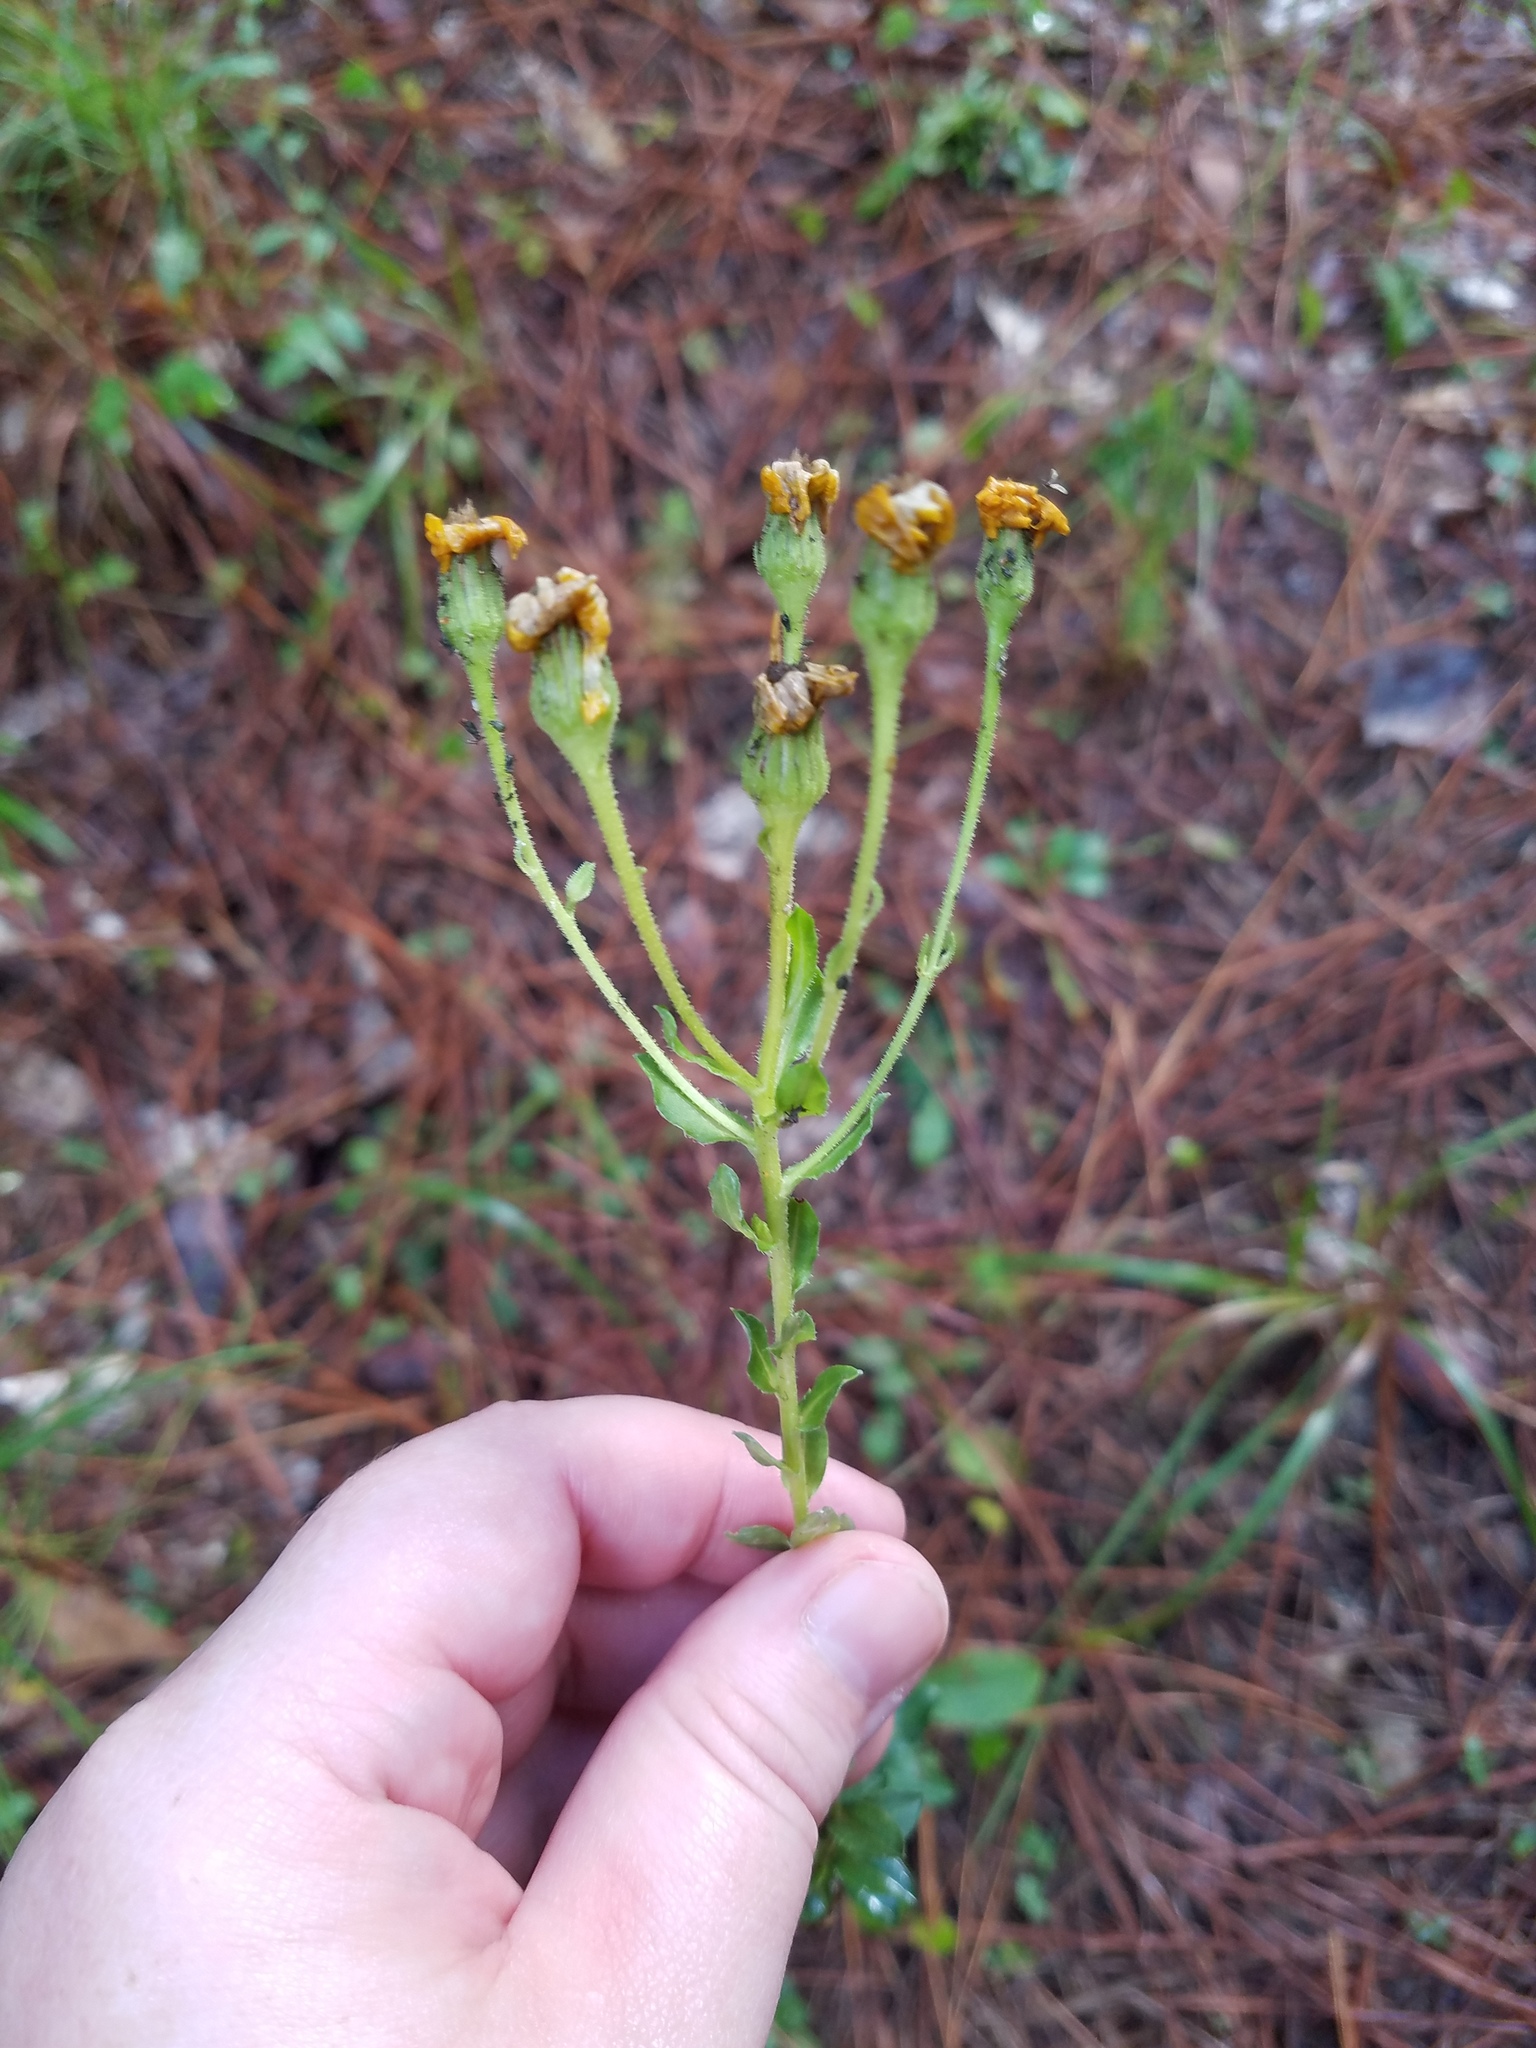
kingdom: Plantae
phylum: Tracheophyta
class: Magnoliopsida
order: Asterales
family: Asteraceae
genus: Chrysopsis
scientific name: Chrysopsis mariana
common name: Maryland golden-aster
